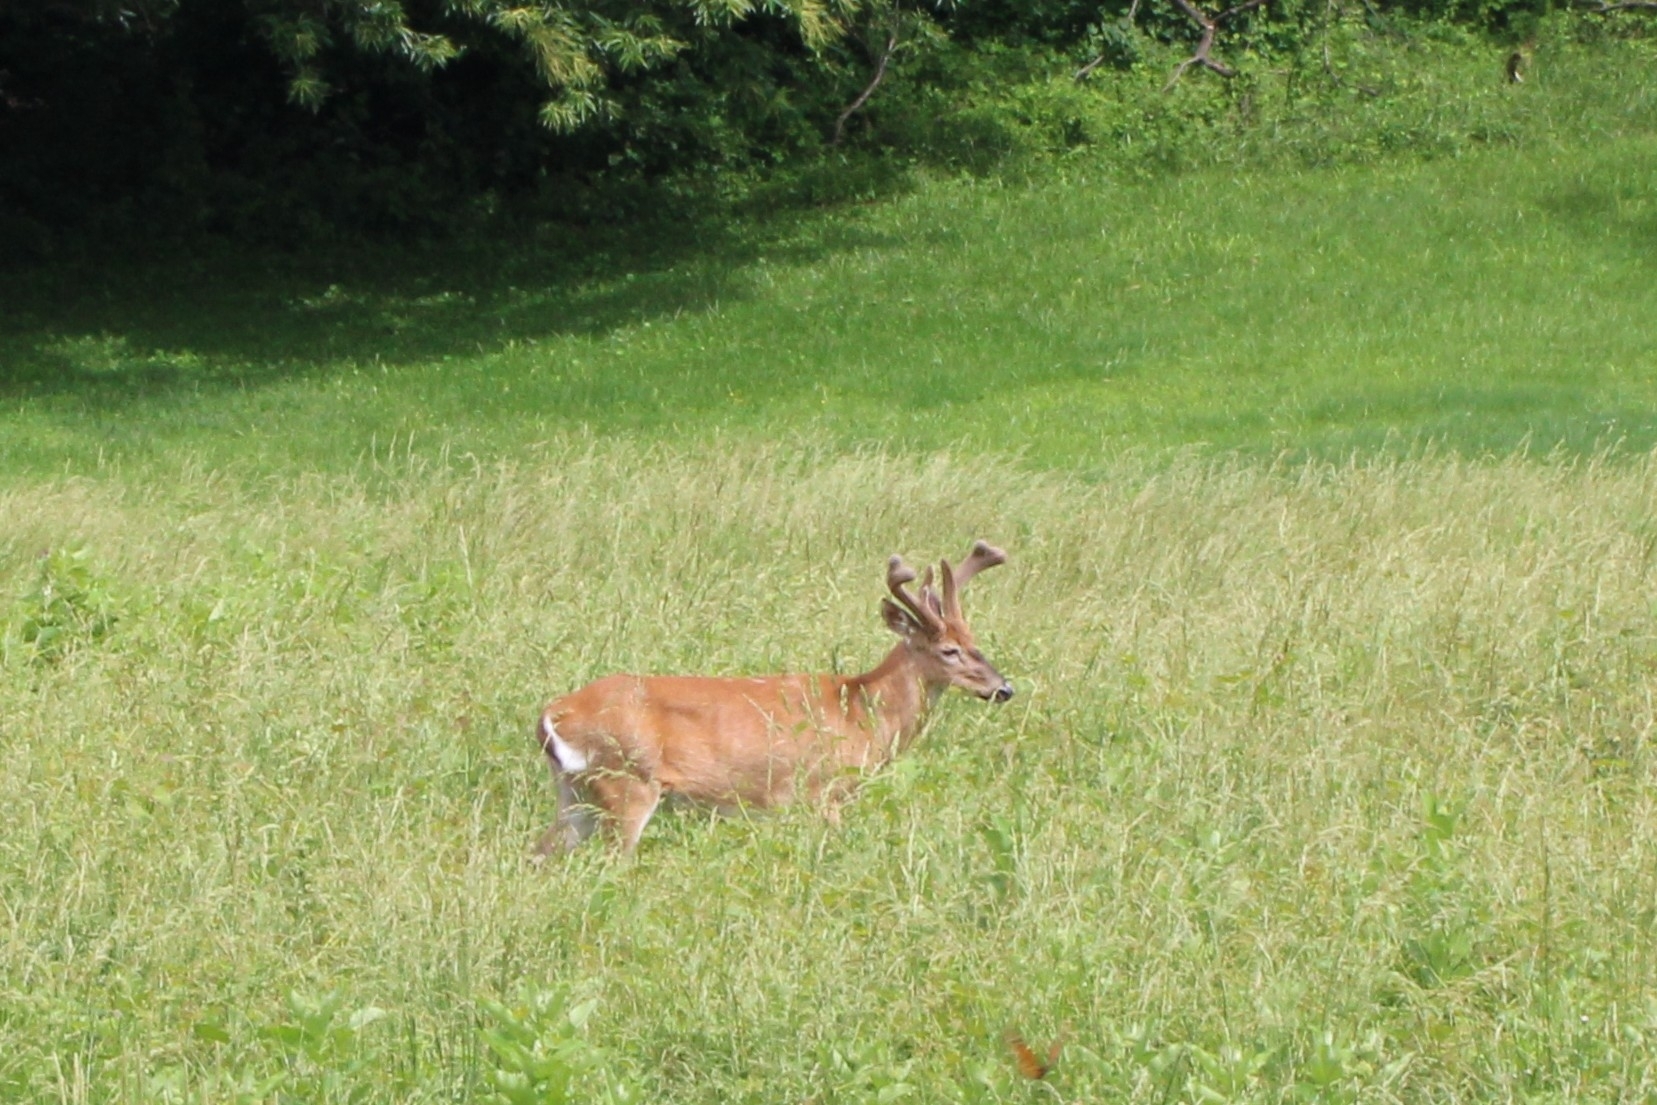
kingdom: Animalia
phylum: Chordata
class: Mammalia
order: Artiodactyla
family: Cervidae
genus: Odocoileus
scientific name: Odocoileus virginianus
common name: White-tailed deer
